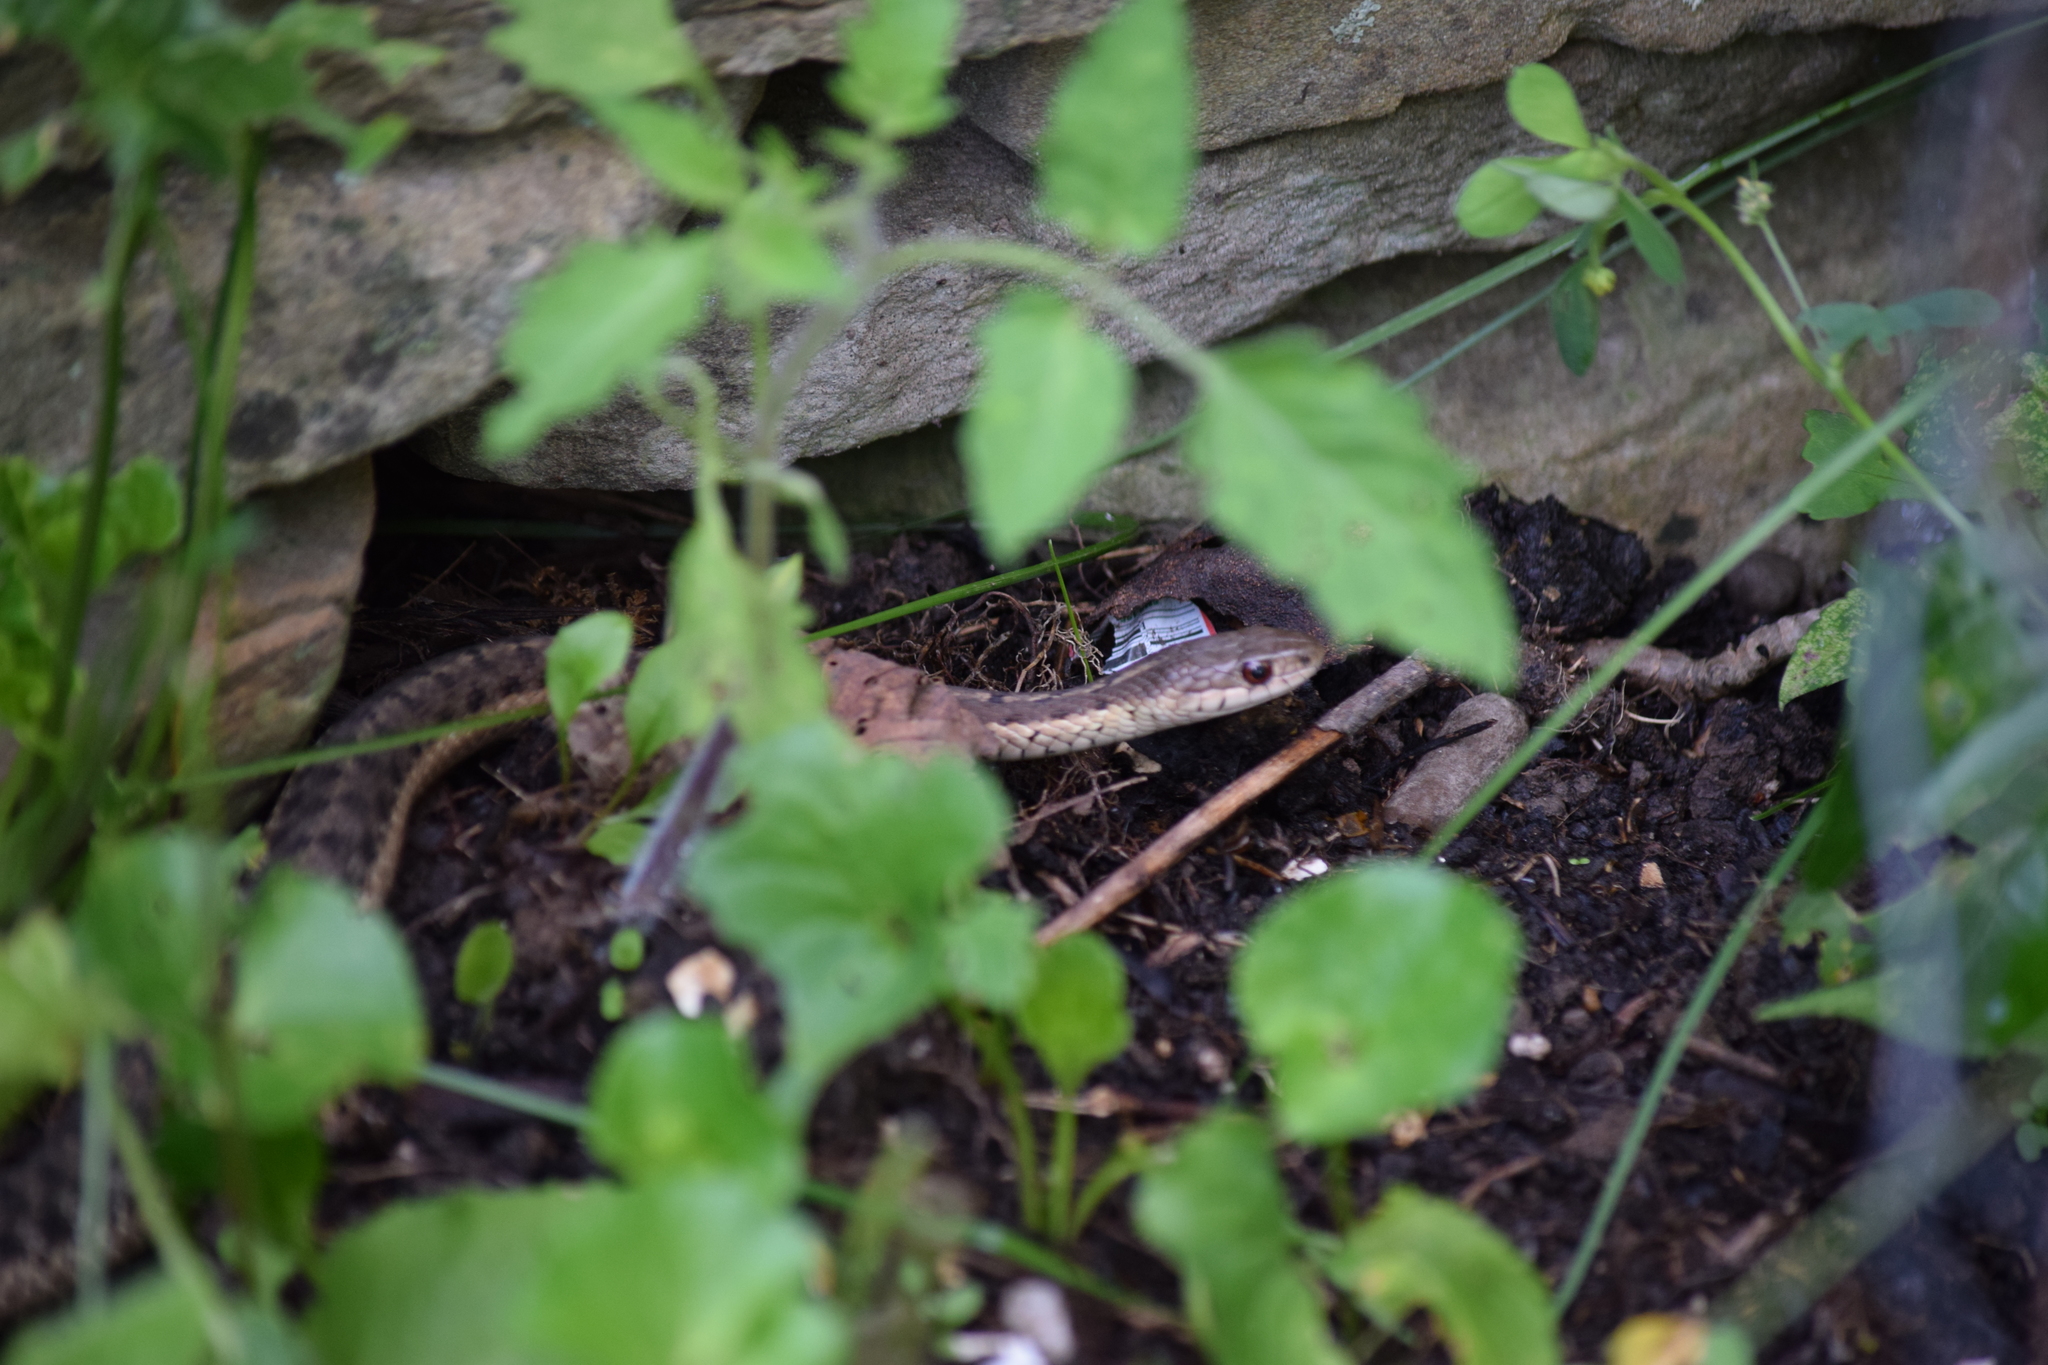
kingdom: Animalia
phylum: Chordata
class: Squamata
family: Colubridae
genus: Thamnophis
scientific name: Thamnophis sirtalis
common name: Common garter snake
